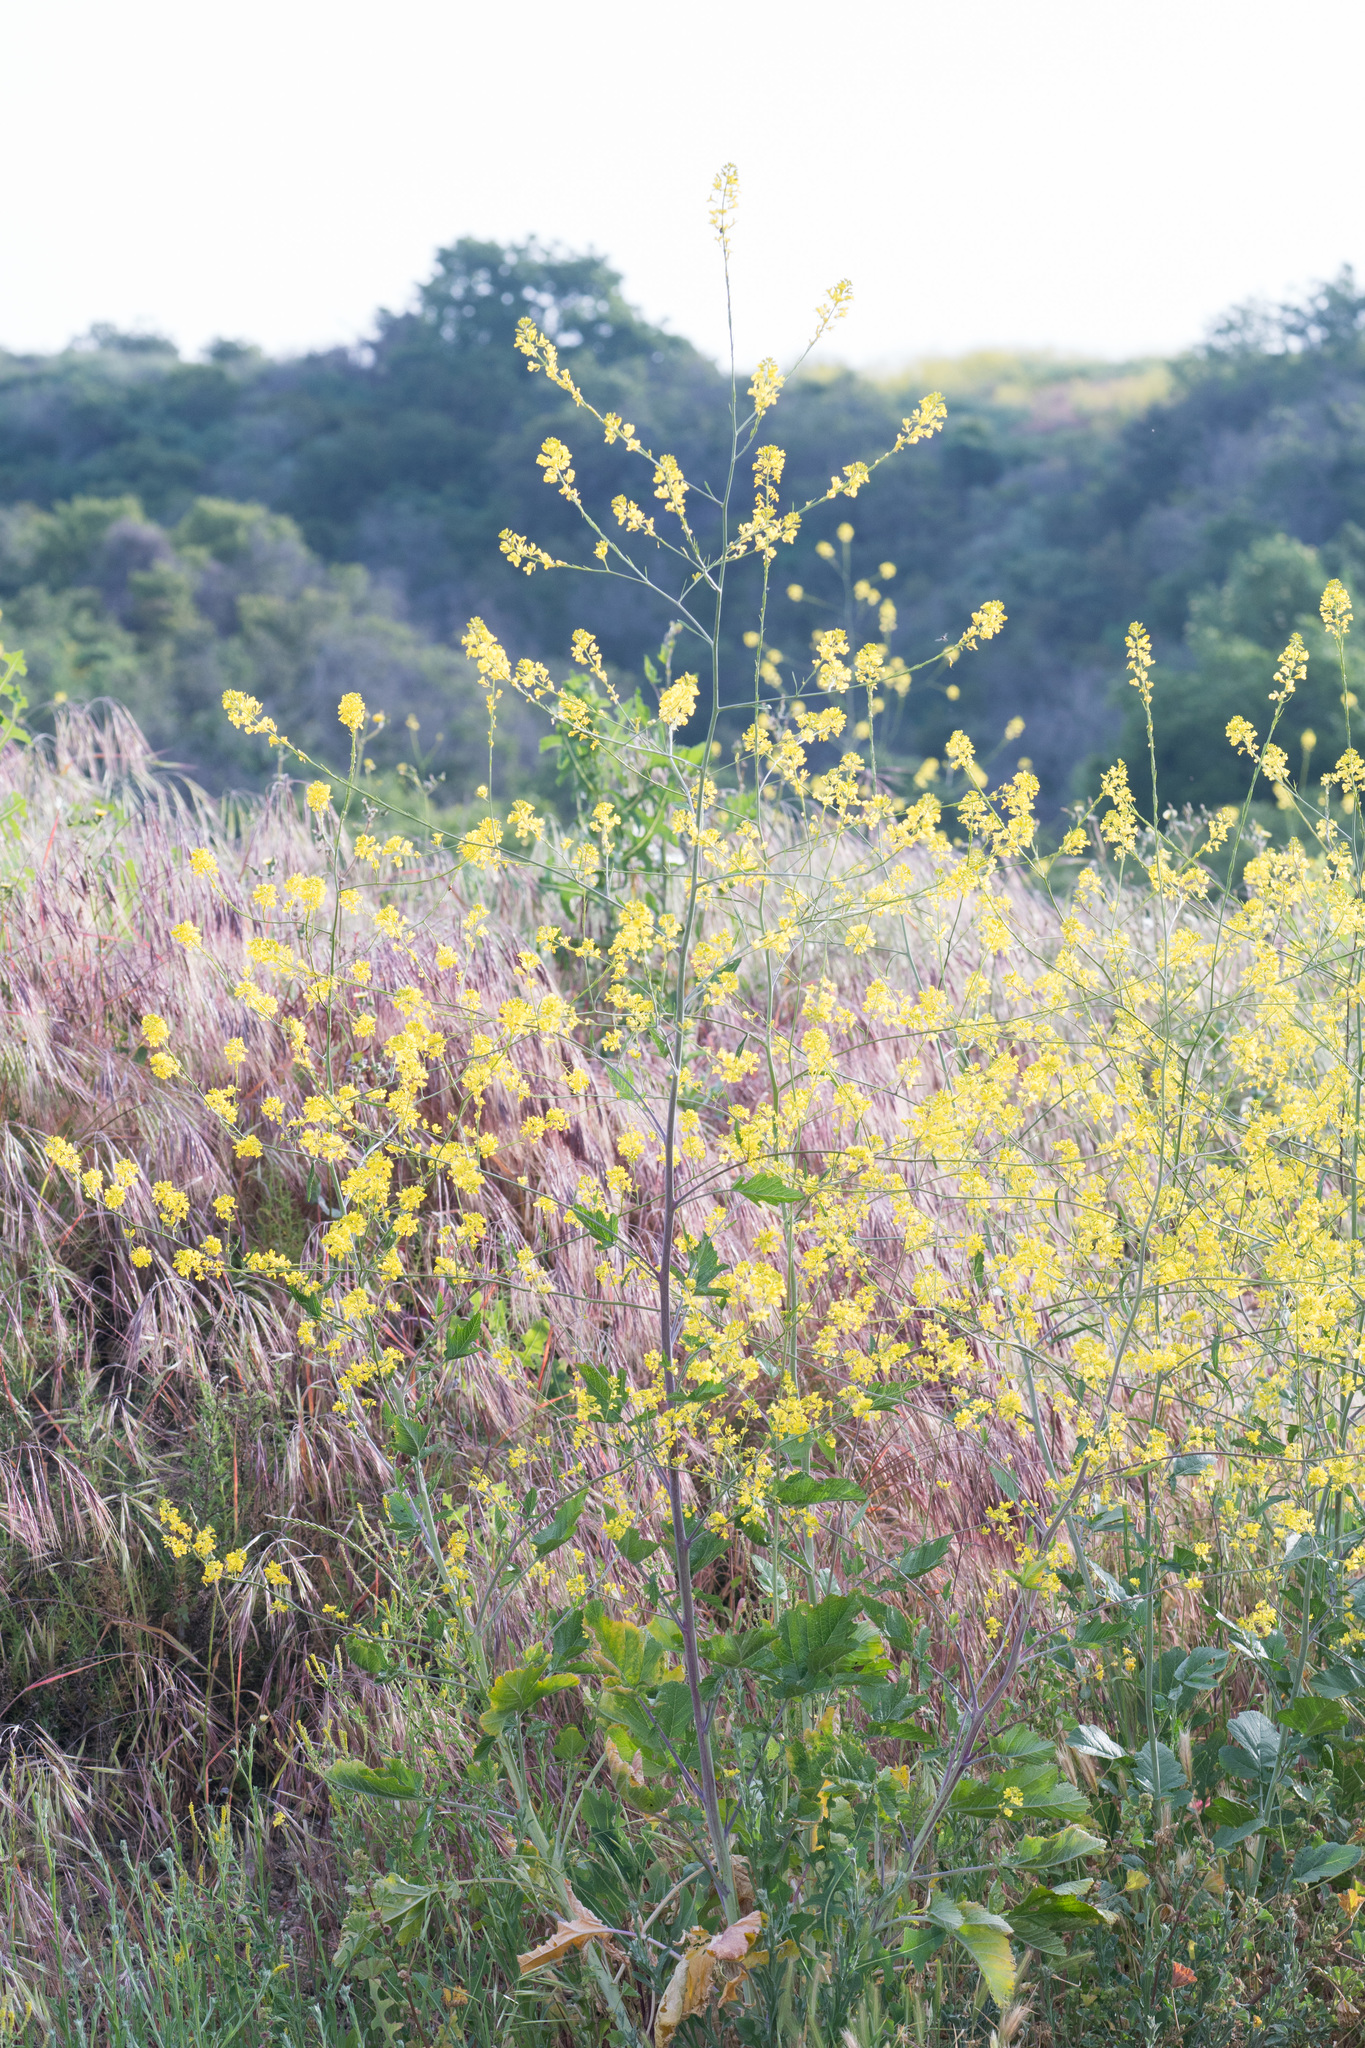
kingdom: Plantae
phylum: Tracheophyta
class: Magnoliopsida
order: Brassicales
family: Brassicaceae
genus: Brassica
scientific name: Brassica nigra
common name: Black mustard
